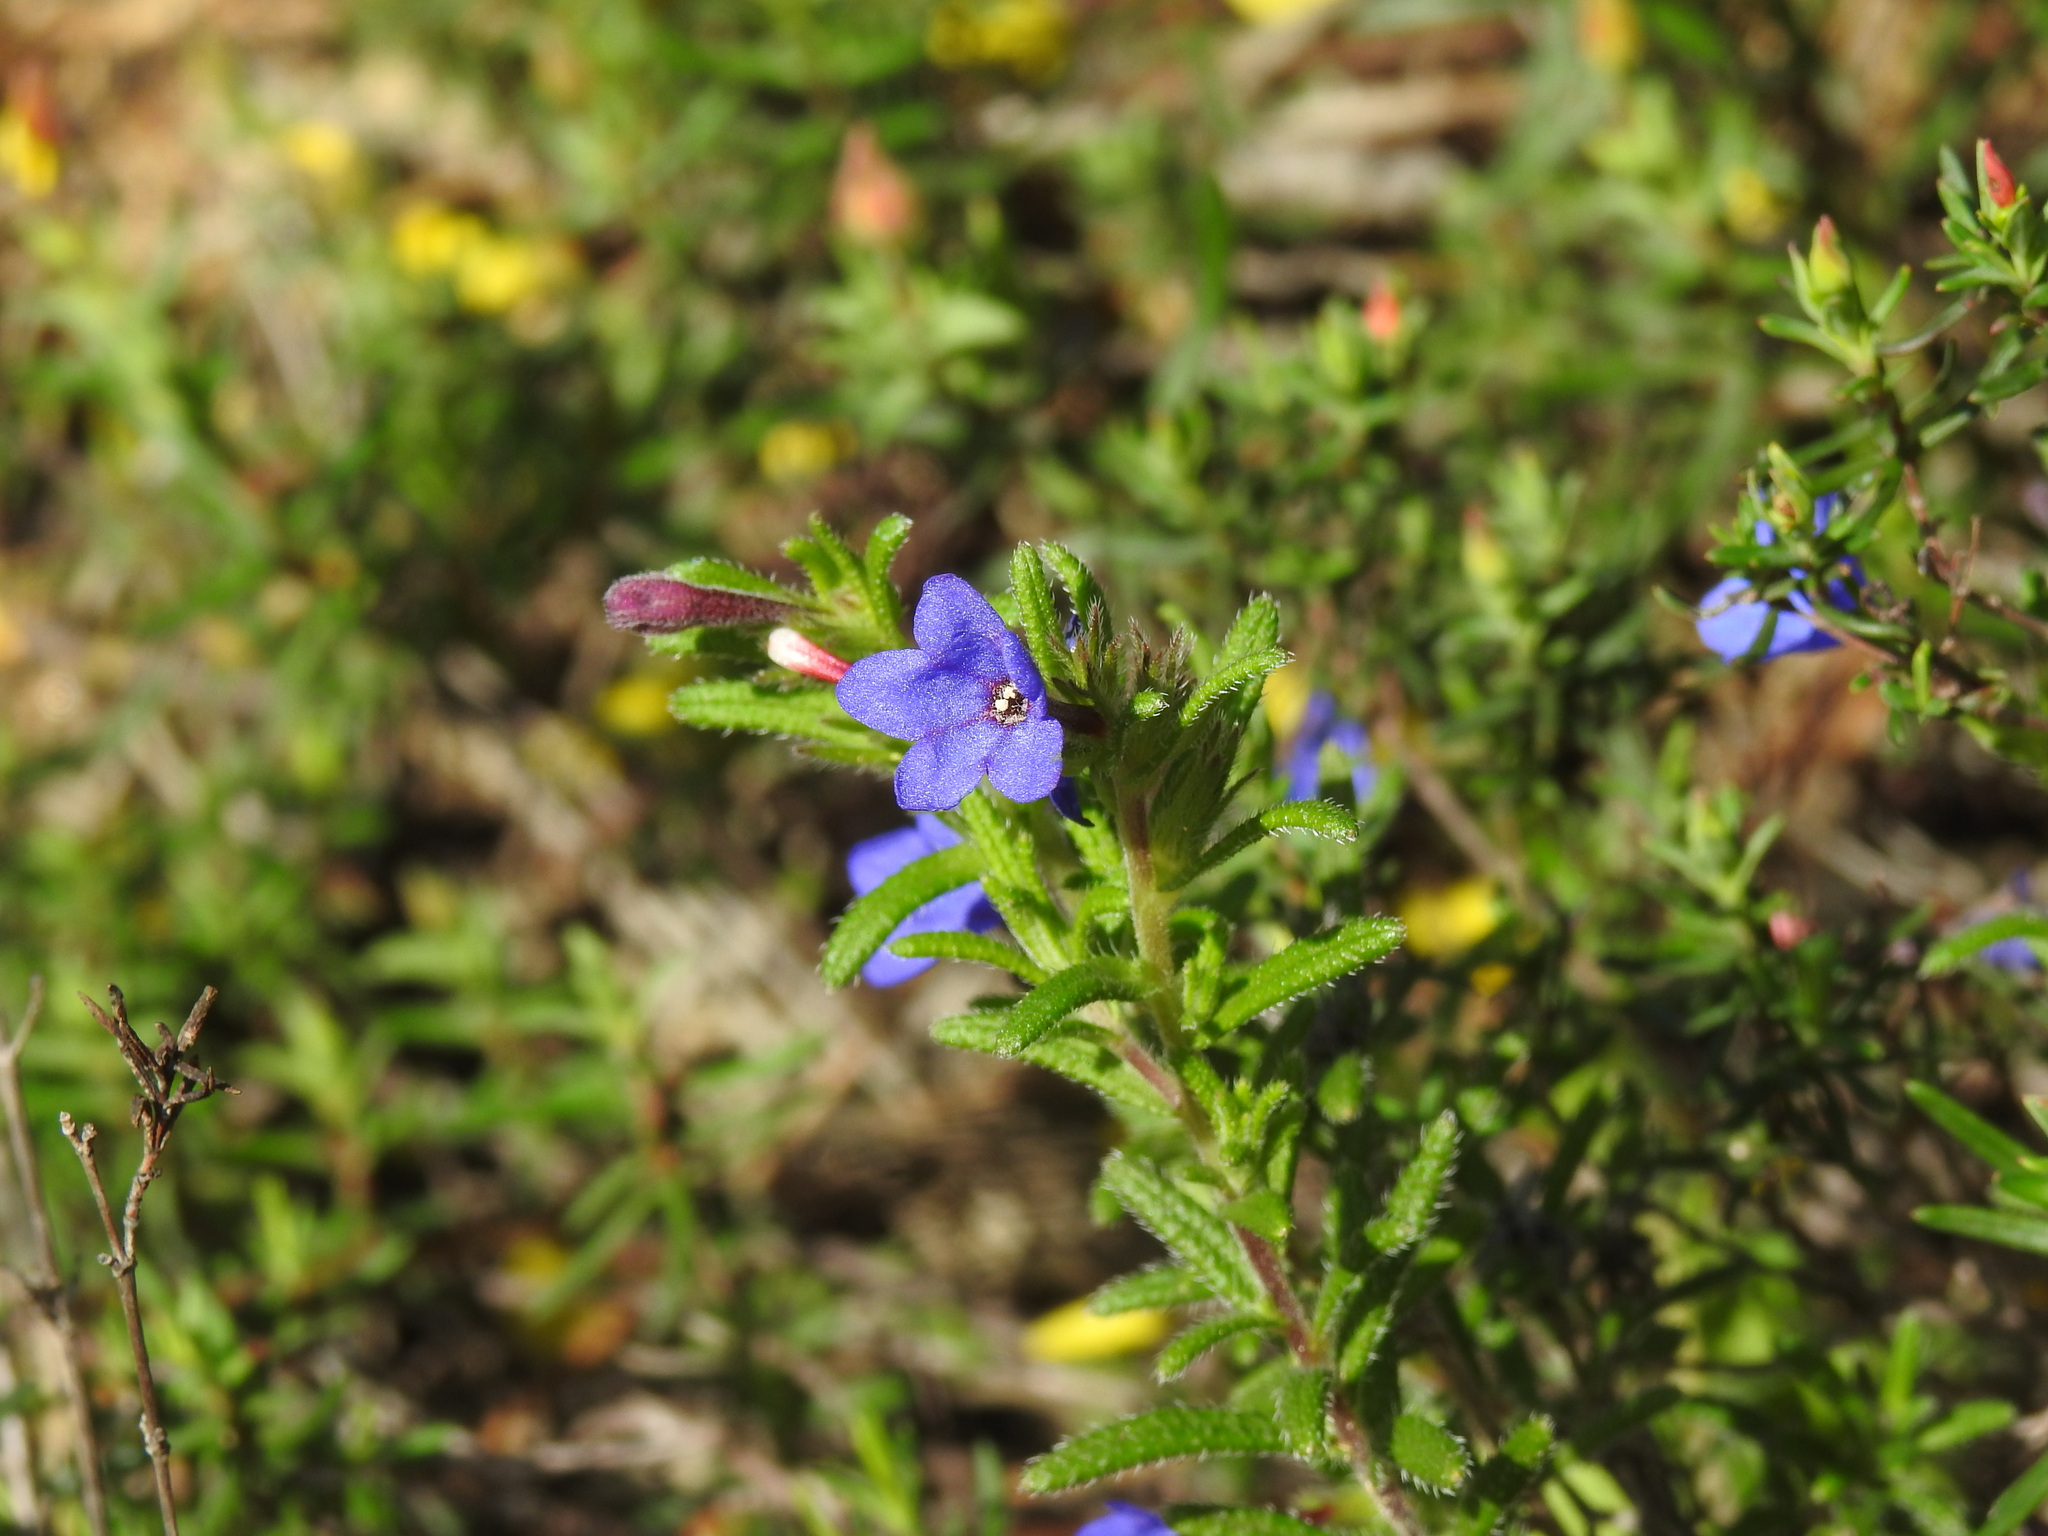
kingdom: Plantae
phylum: Tracheophyta
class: Magnoliopsida
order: Boraginales
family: Boraginaceae
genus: Glandora
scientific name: Glandora prostrata
